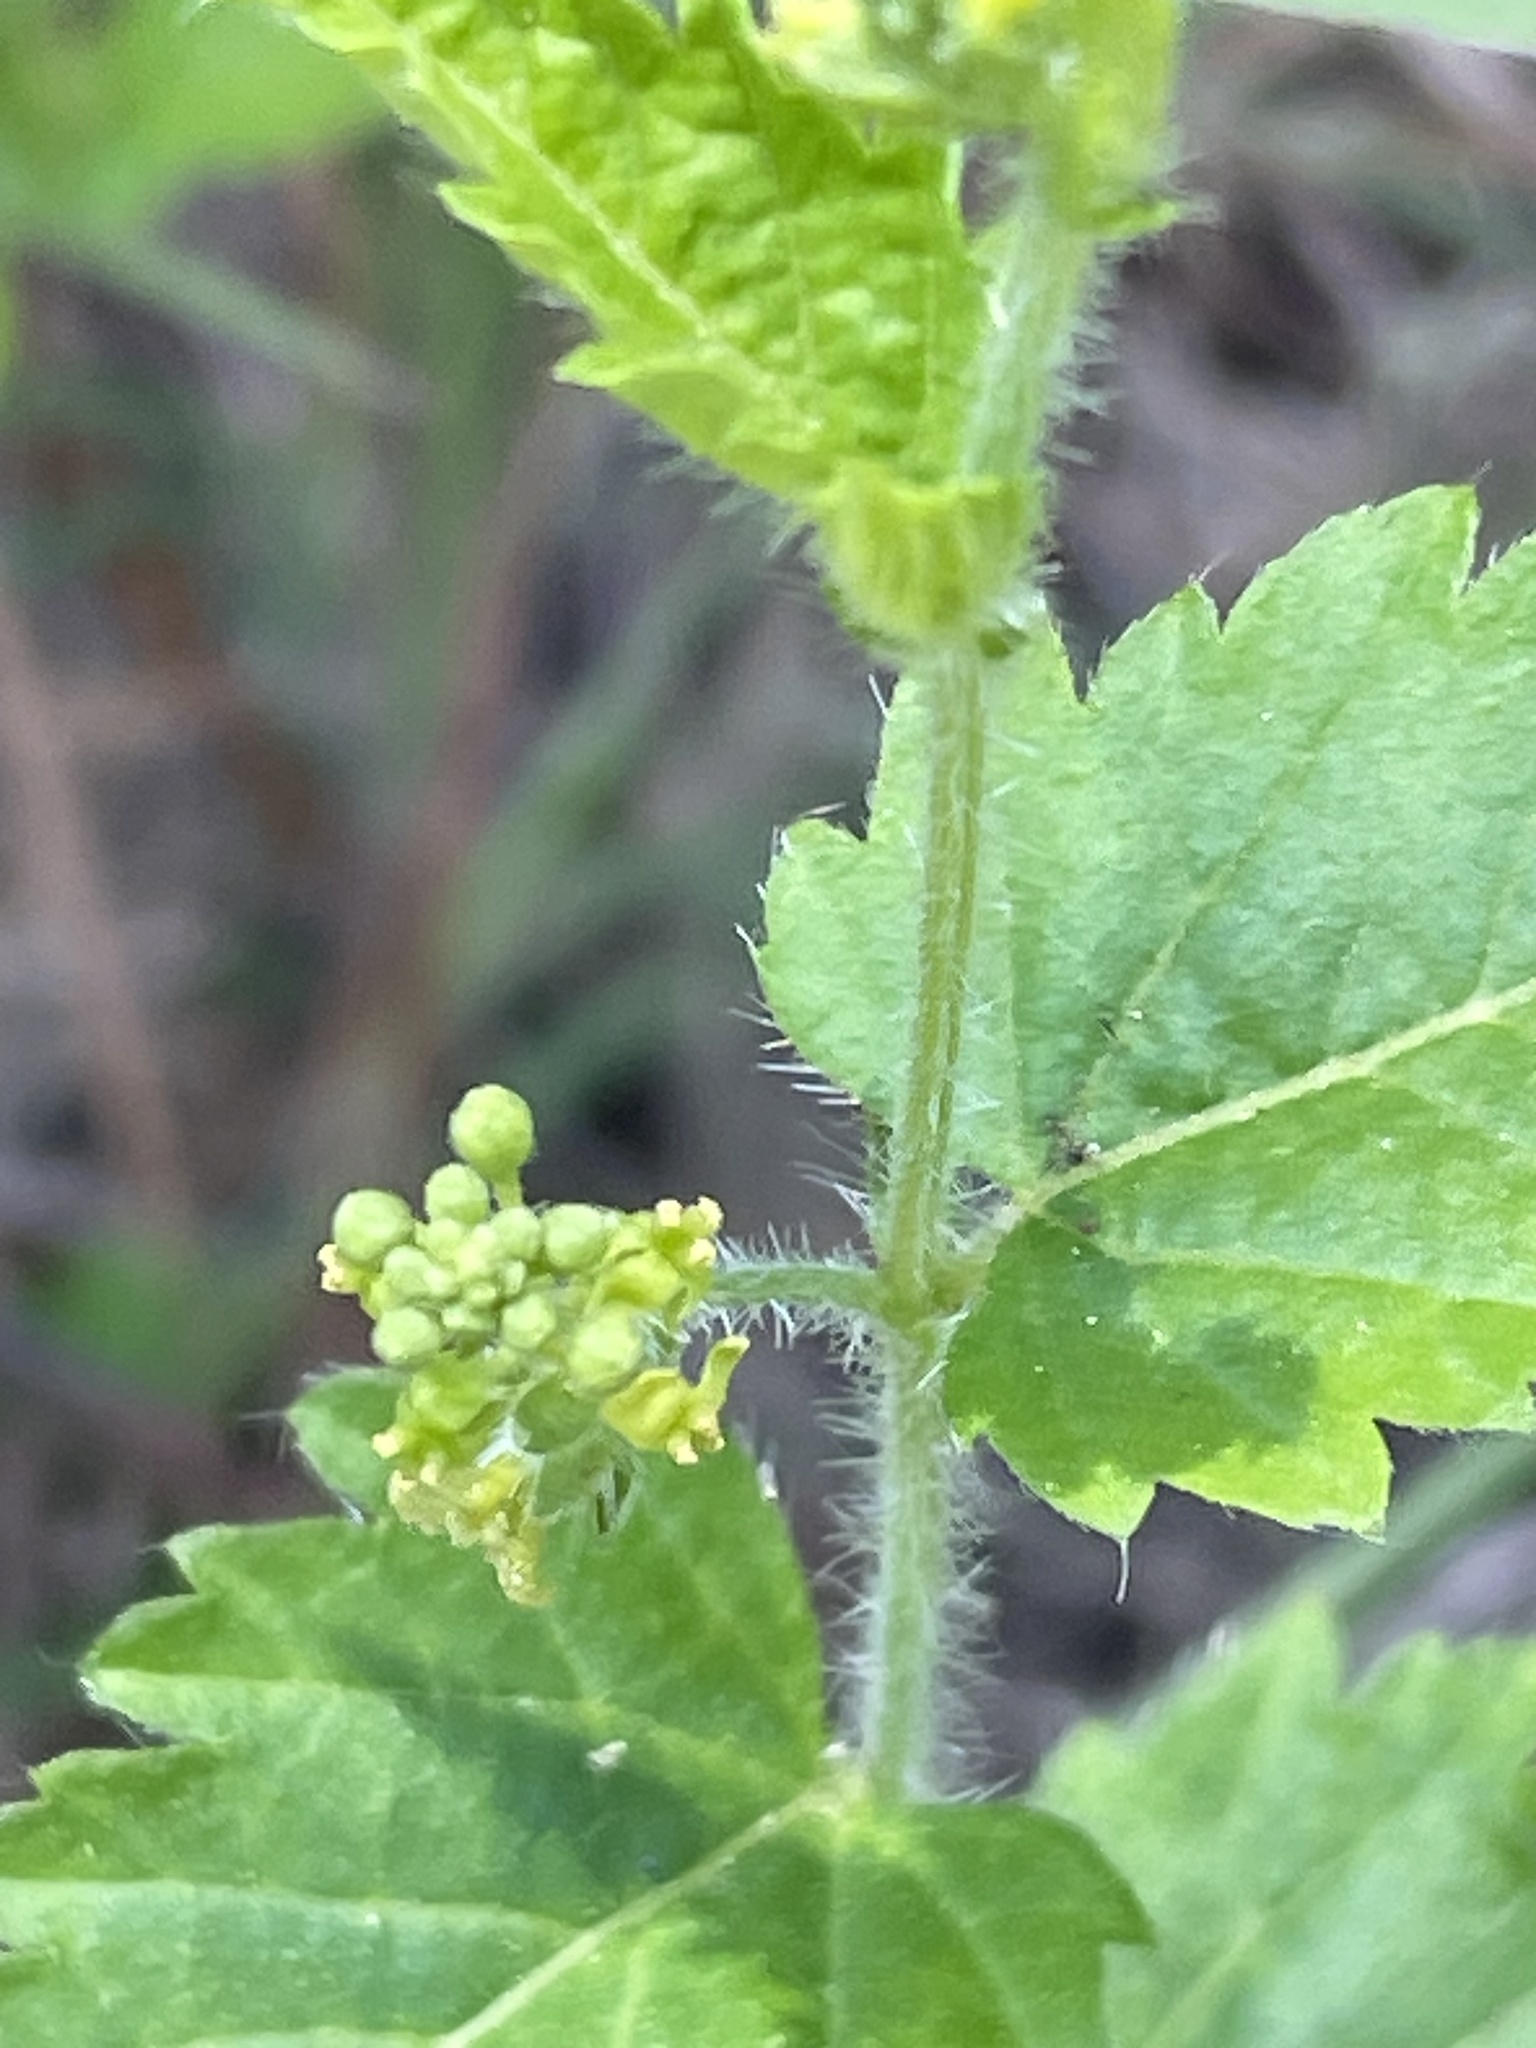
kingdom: Plantae
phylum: Tracheophyta
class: Magnoliopsida
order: Malpighiales
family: Euphorbiaceae
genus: Tragia
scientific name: Tragia urticifolia
